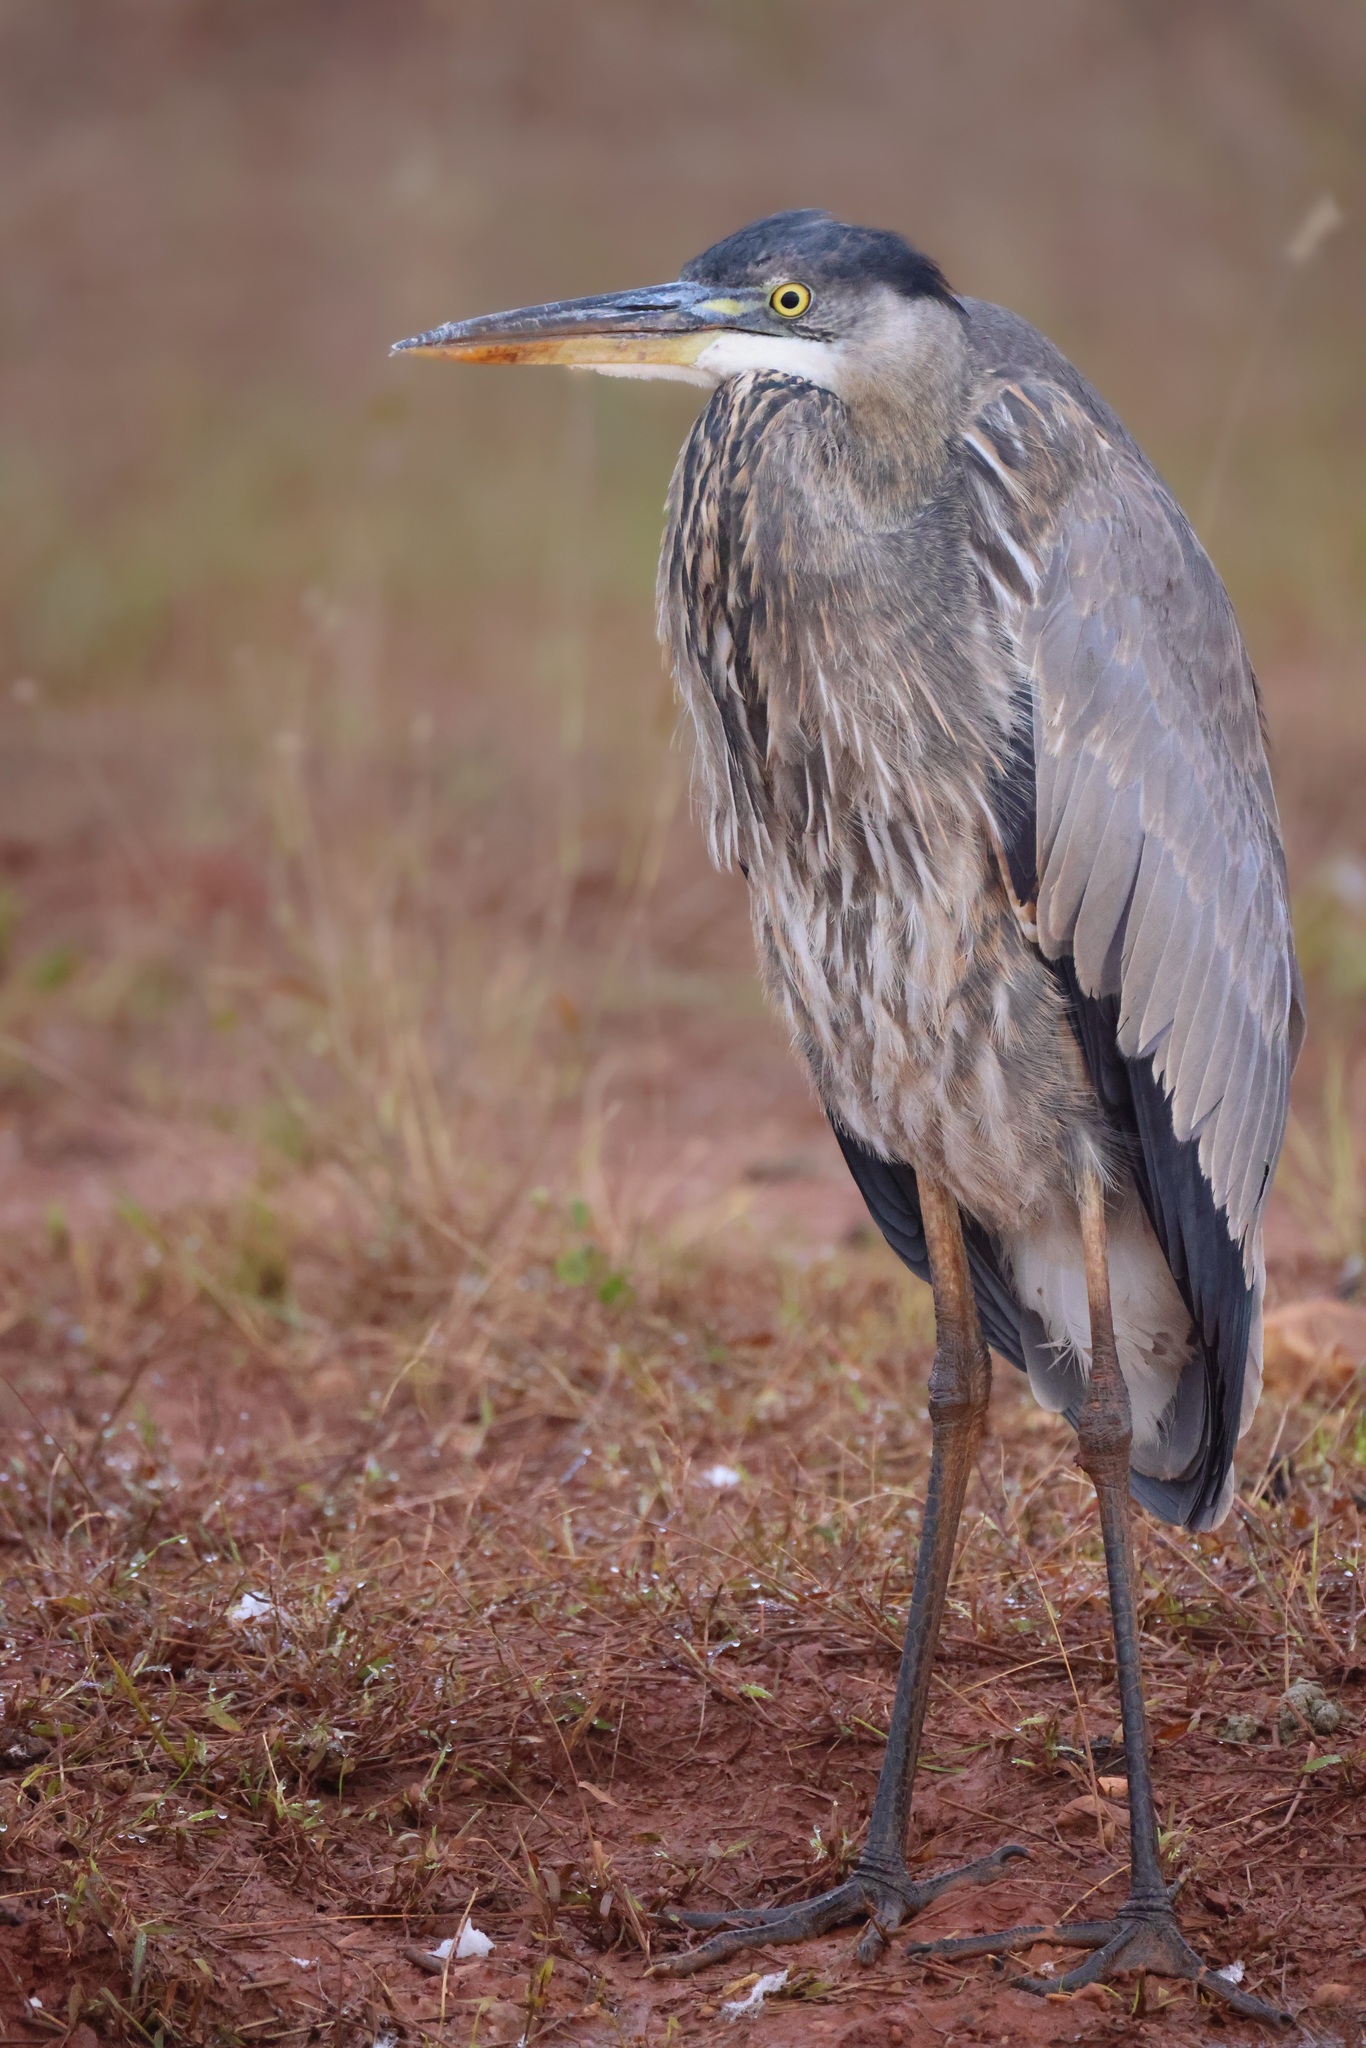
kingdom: Animalia
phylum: Chordata
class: Aves
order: Pelecaniformes
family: Ardeidae
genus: Ardea
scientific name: Ardea herodias
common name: Great blue heron
